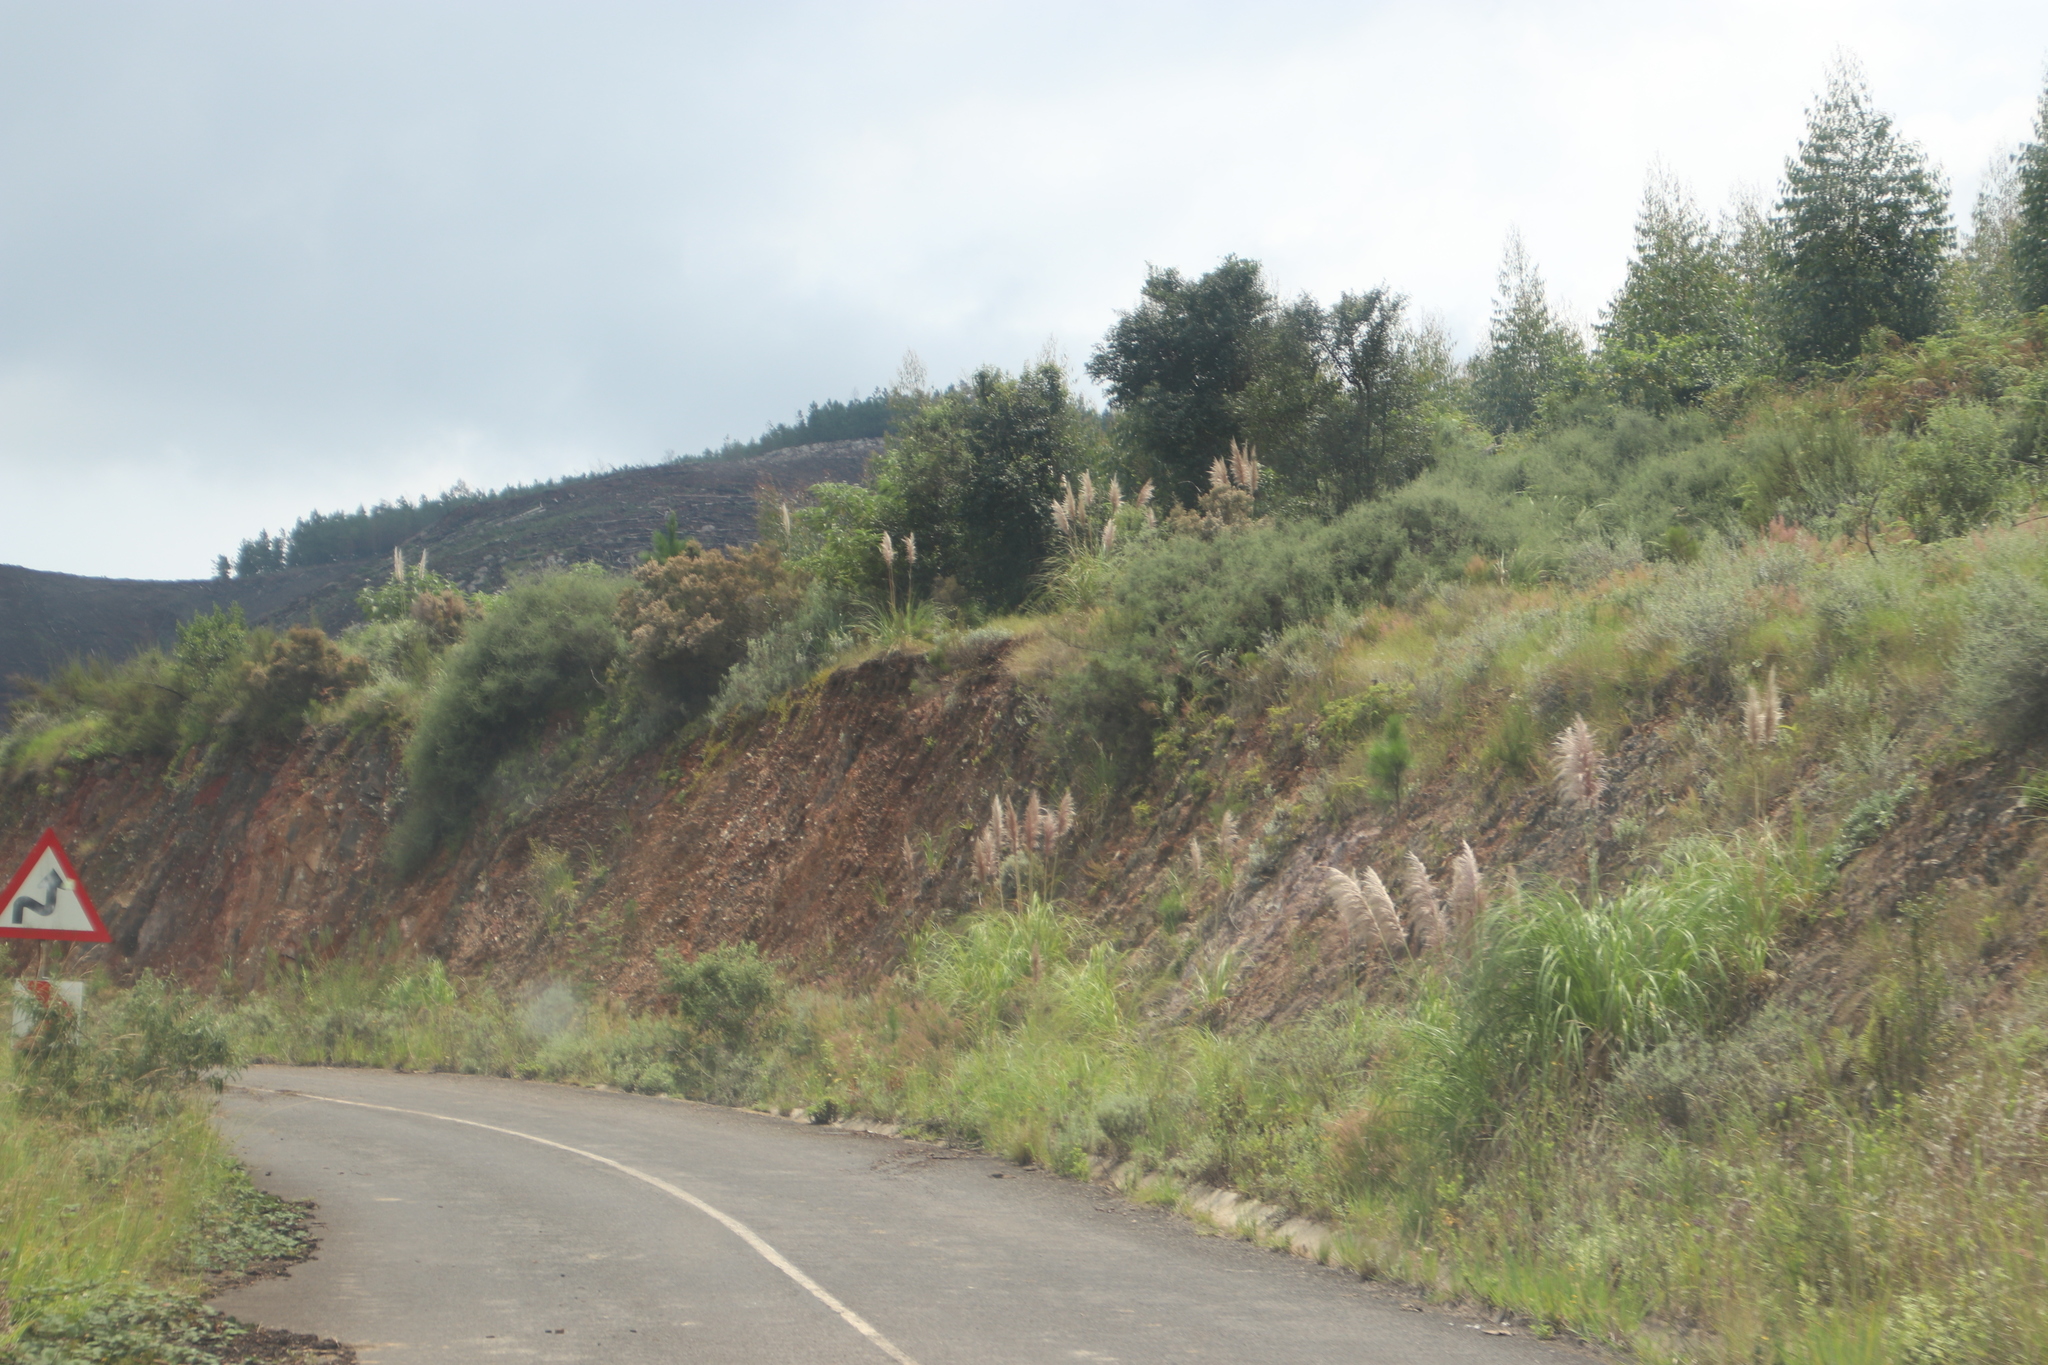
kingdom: Plantae
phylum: Tracheophyta
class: Liliopsida
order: Poales
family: Poaceae
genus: Cortaderia
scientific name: Cortaderia selloana
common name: Uruguayan pampas grass
